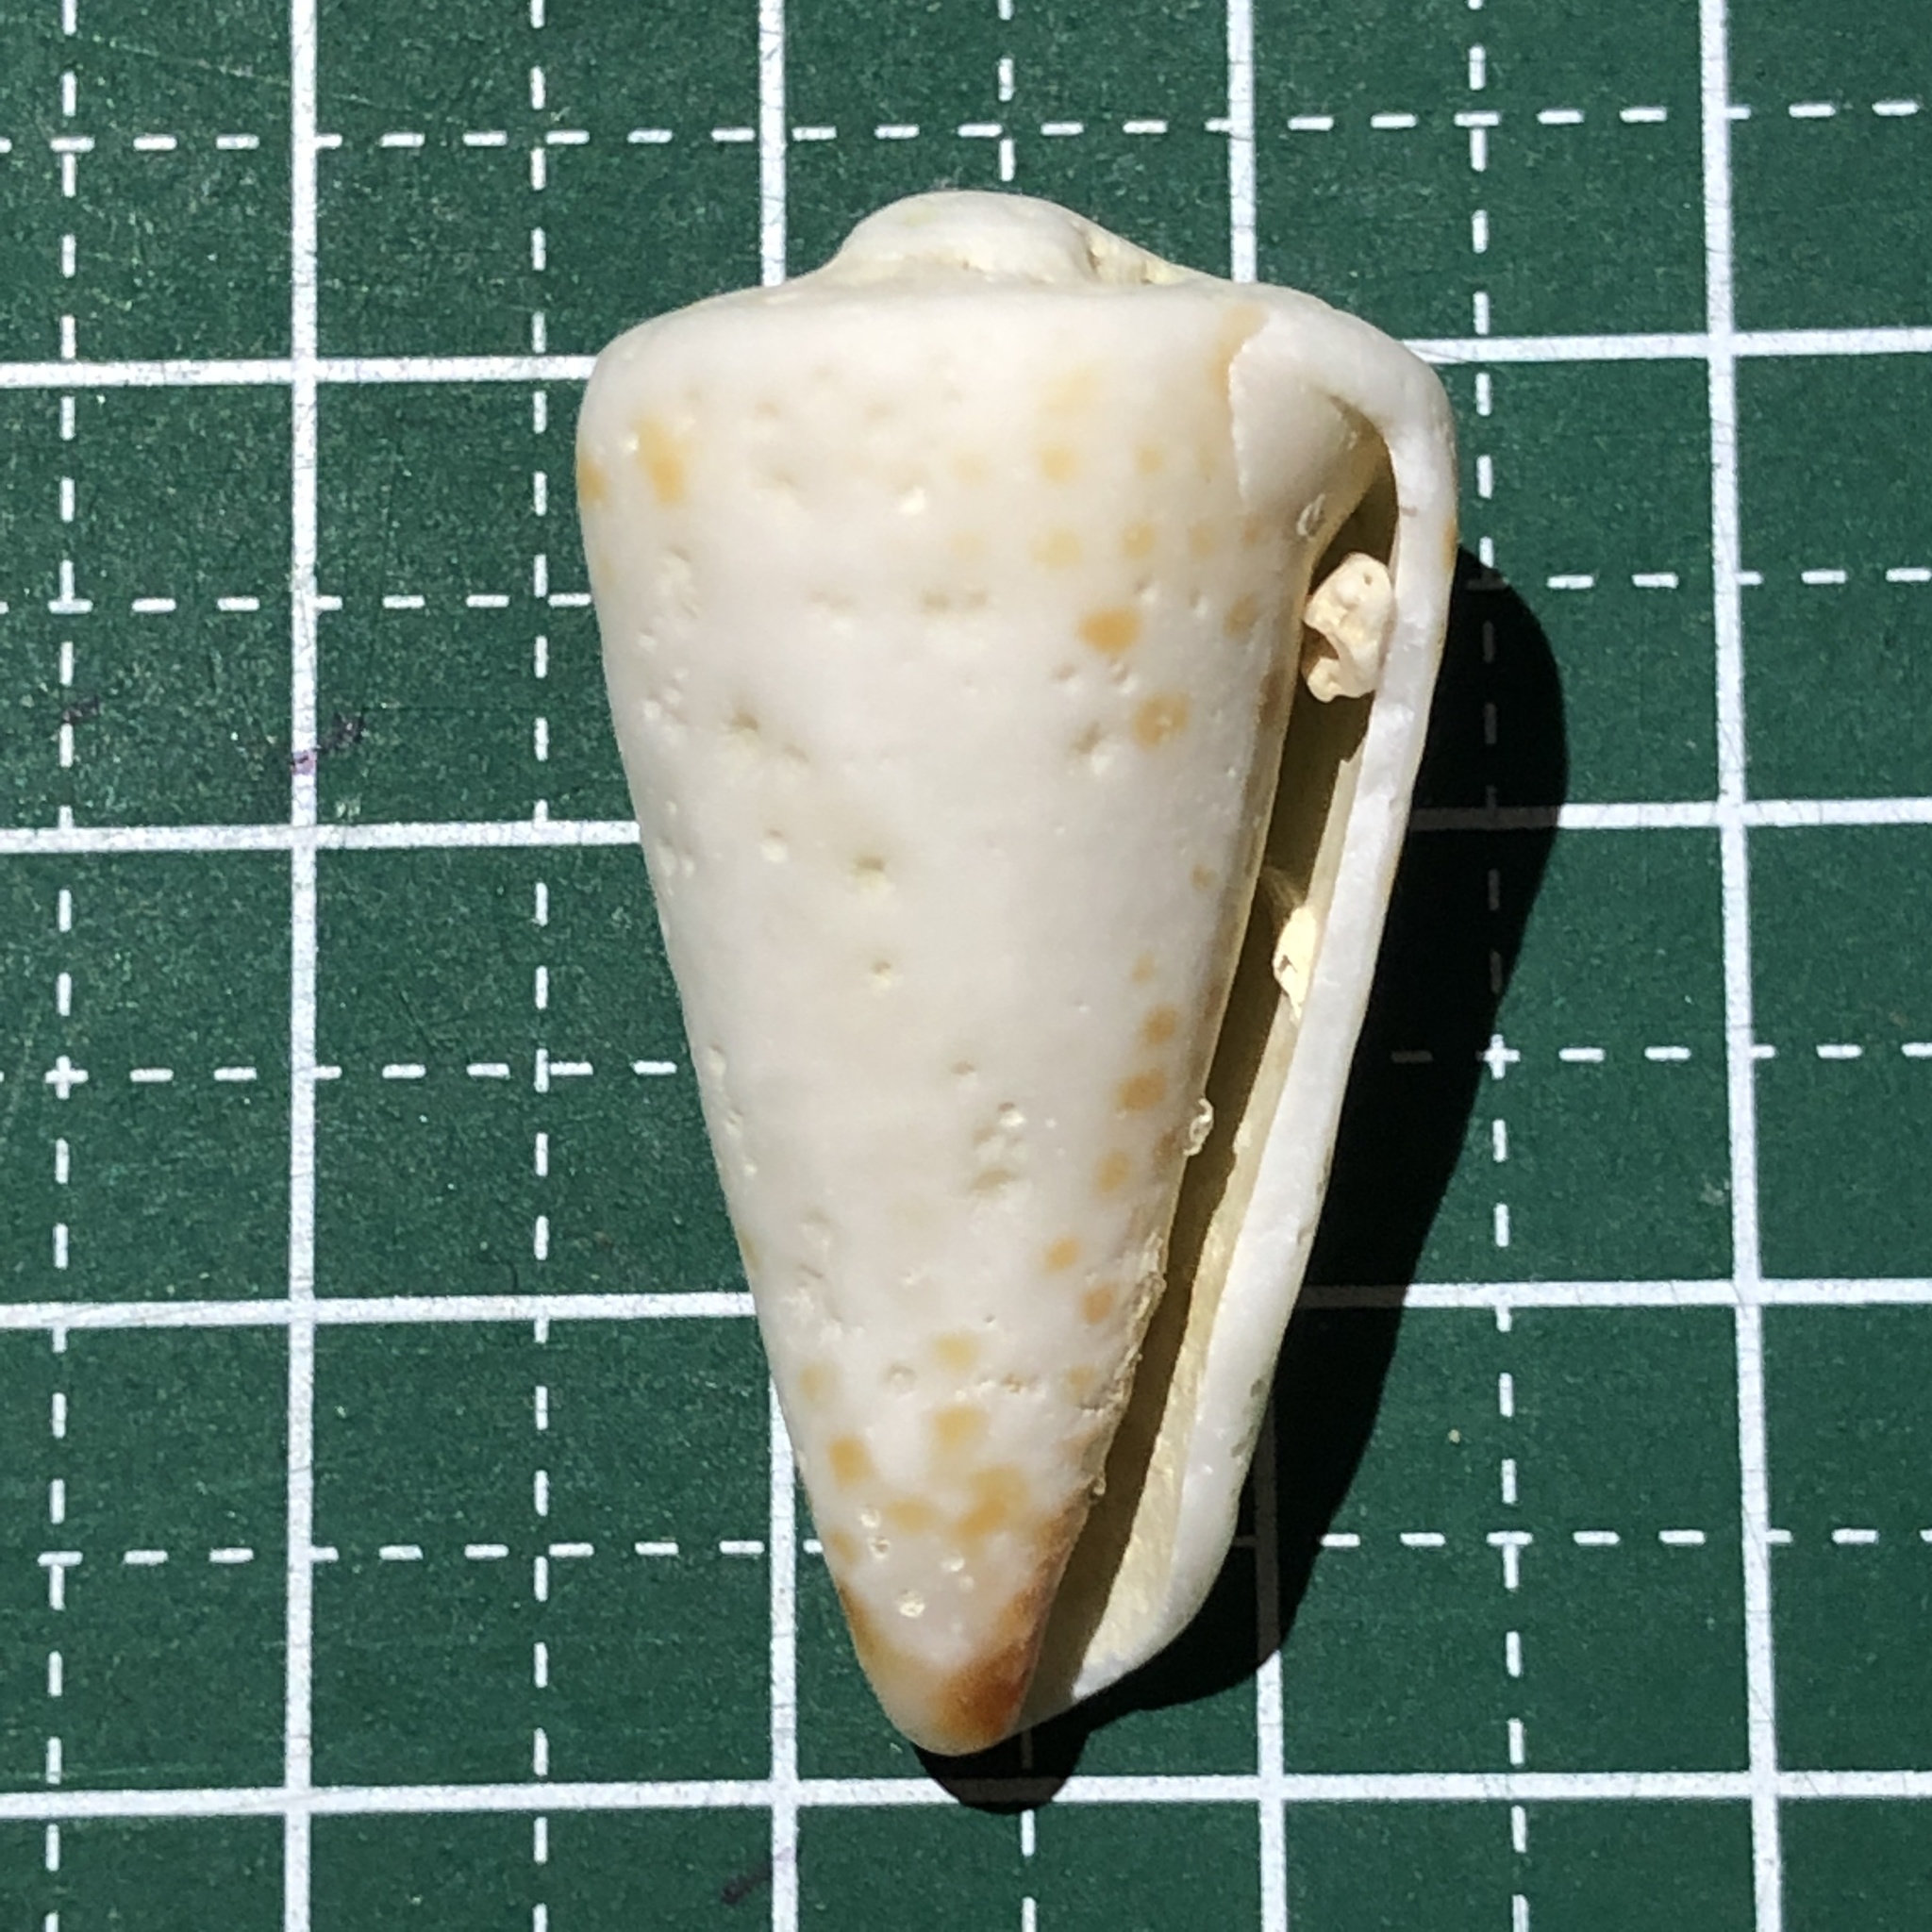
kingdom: Animalia
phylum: Mollusca
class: Gastropoda
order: Neogastropoda
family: Conidae
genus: Conus
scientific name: Conus litteratus
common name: Lettered cone
